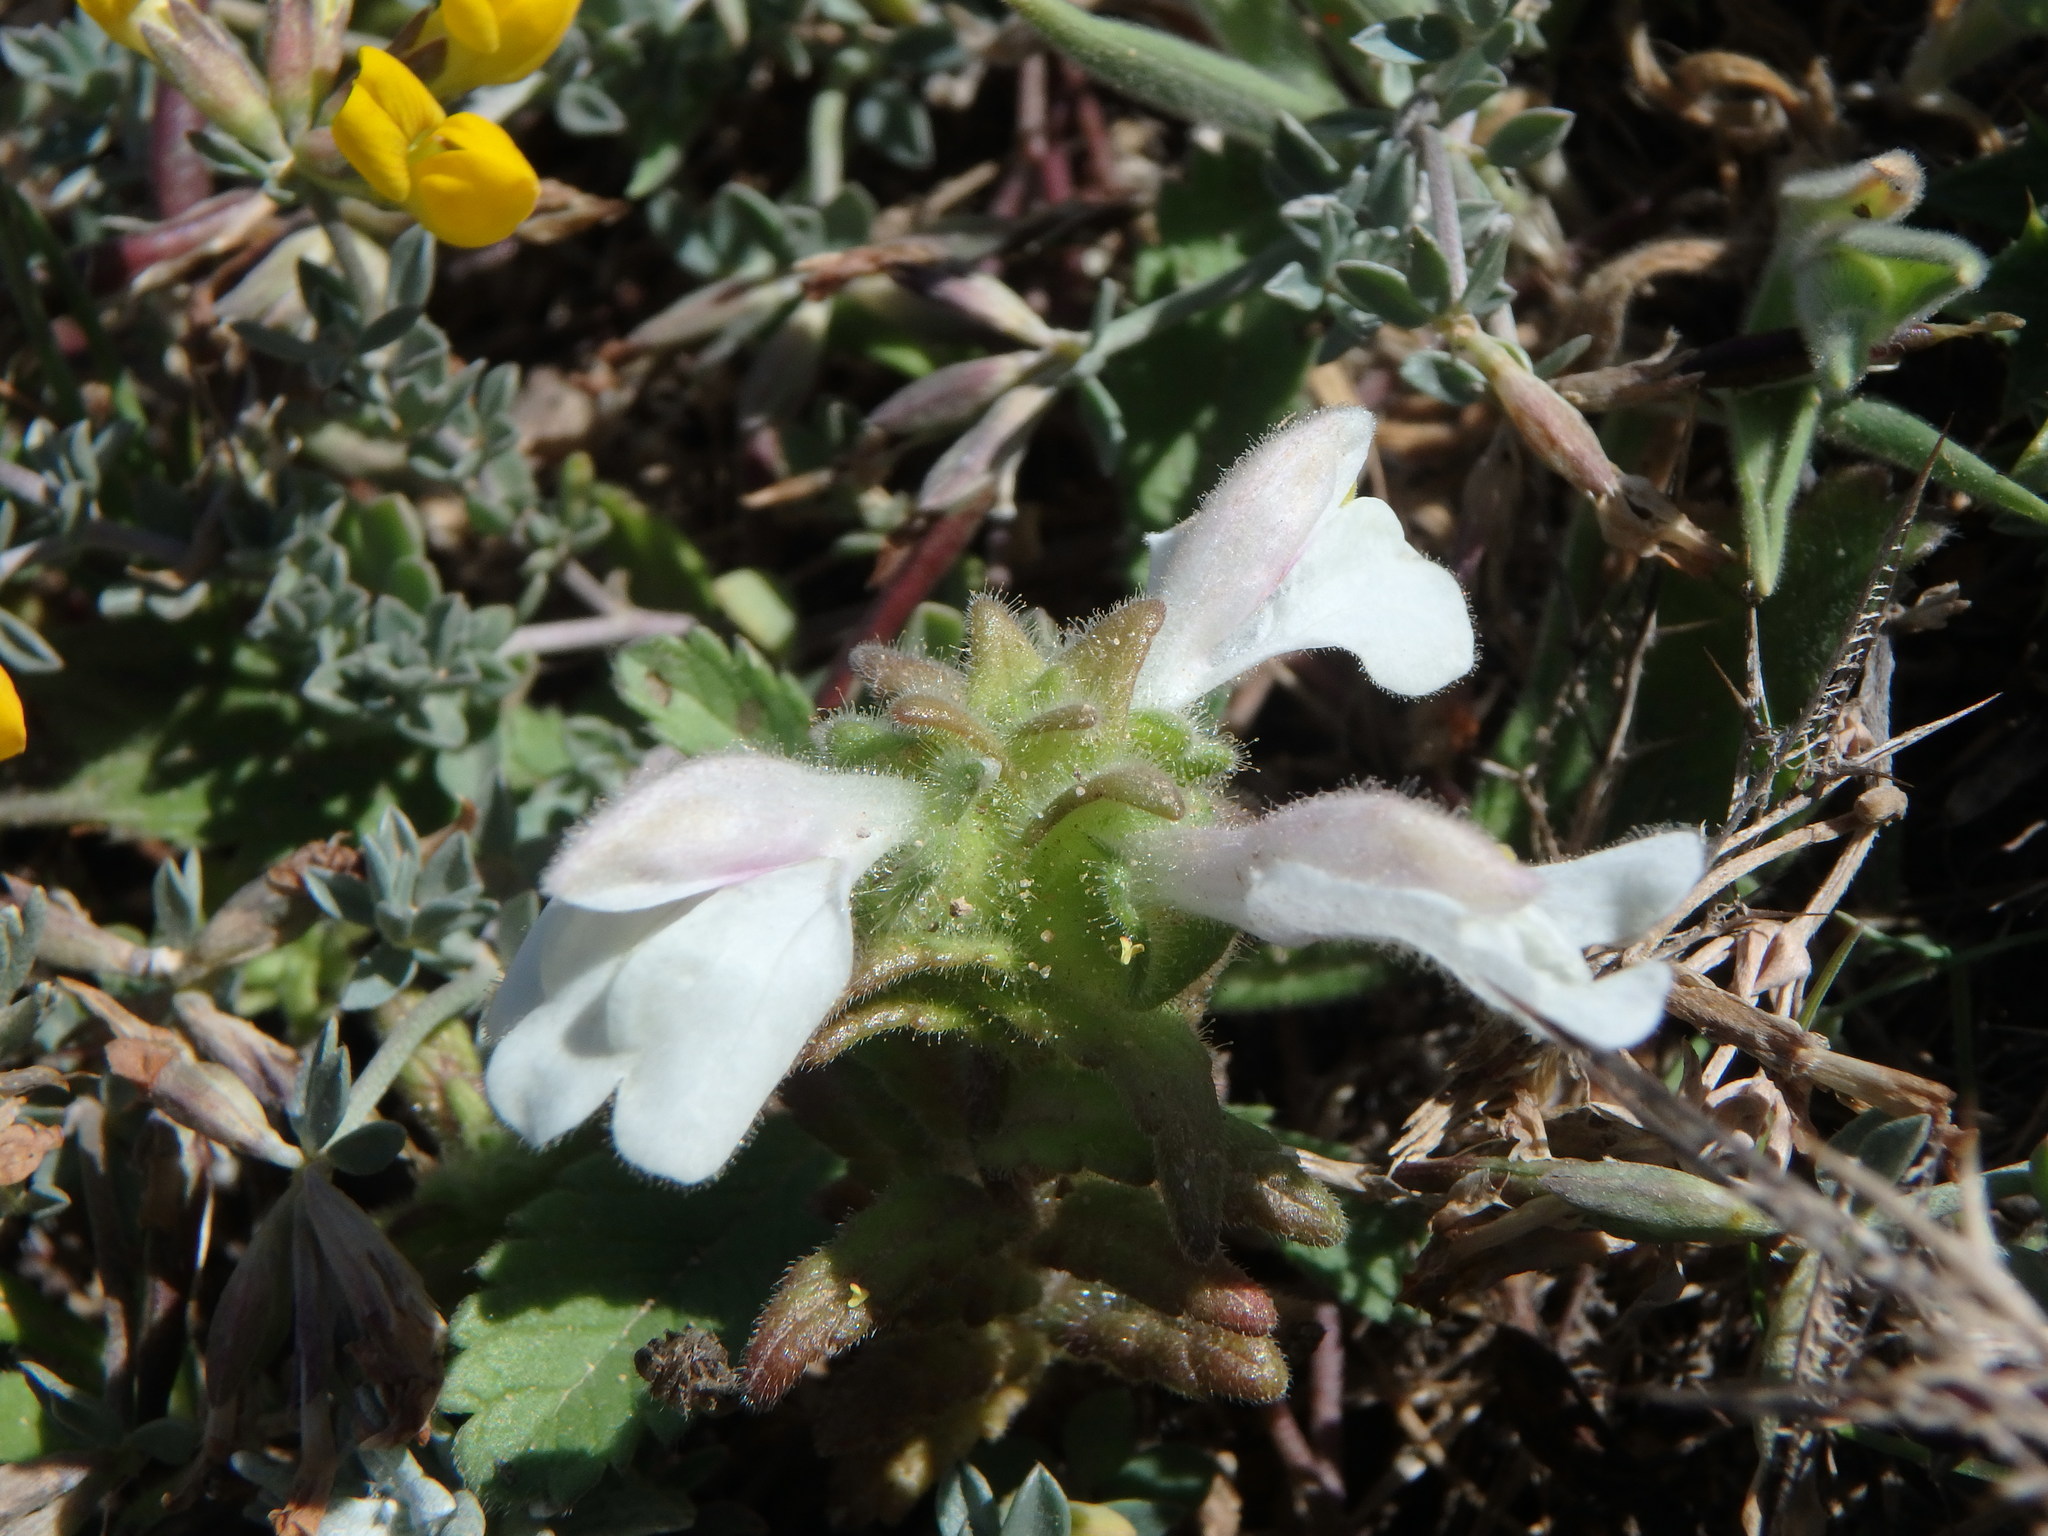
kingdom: Plantae
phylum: Tracheophyta
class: Magnoliopsida
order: Lamiales
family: Orobanchaceae
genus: Bellardia
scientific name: Bellardia trixago
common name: Mediterranean lineseed
